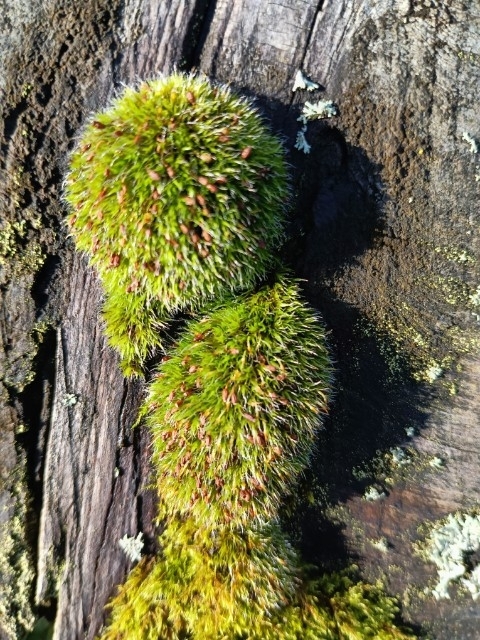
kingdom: Plantae
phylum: Bryophyta
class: Bryopsida
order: Grimmiales
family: Grimmiaceae
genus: Grimmia
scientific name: Grimmia pulvinata
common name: Grey-cushioned grimmia
